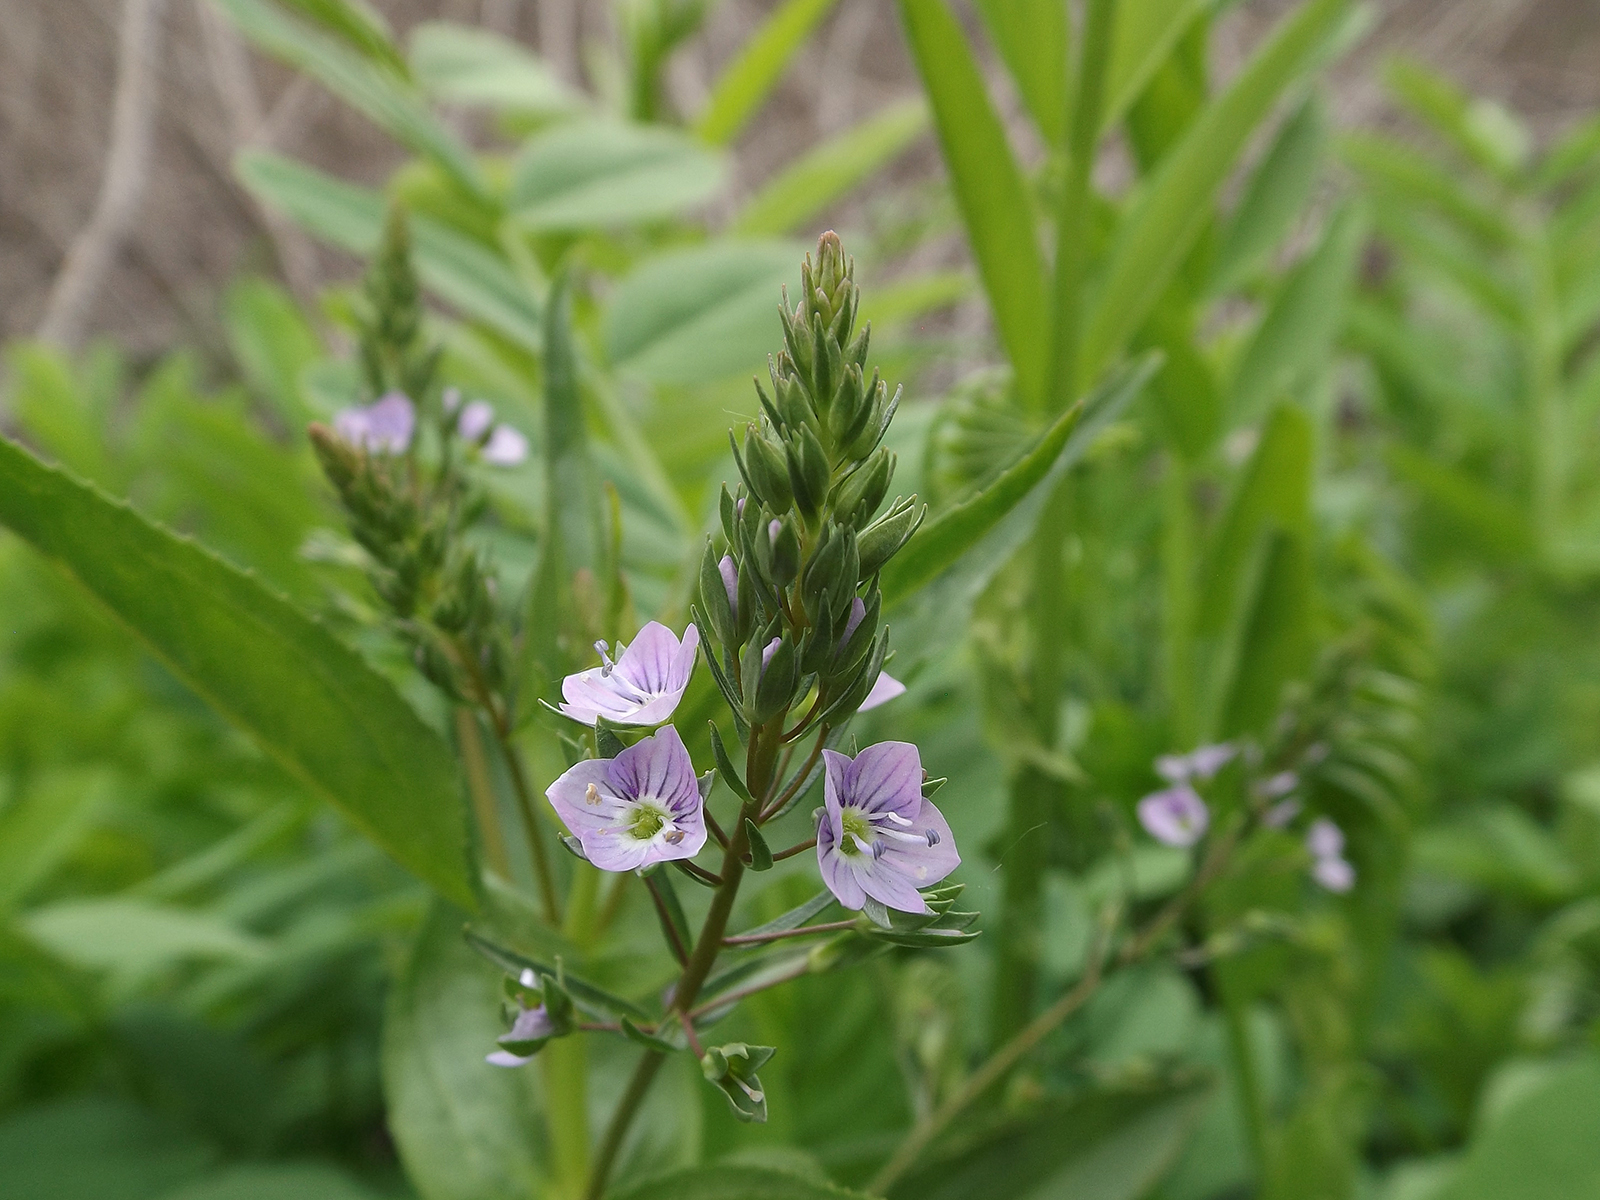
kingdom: Plantae
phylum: Tracheophyta
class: Magnoliopsida
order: Lamiales
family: Plantaginaceae
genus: Veronica
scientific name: Veronica anagallis-aquatica
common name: Water speedwell
